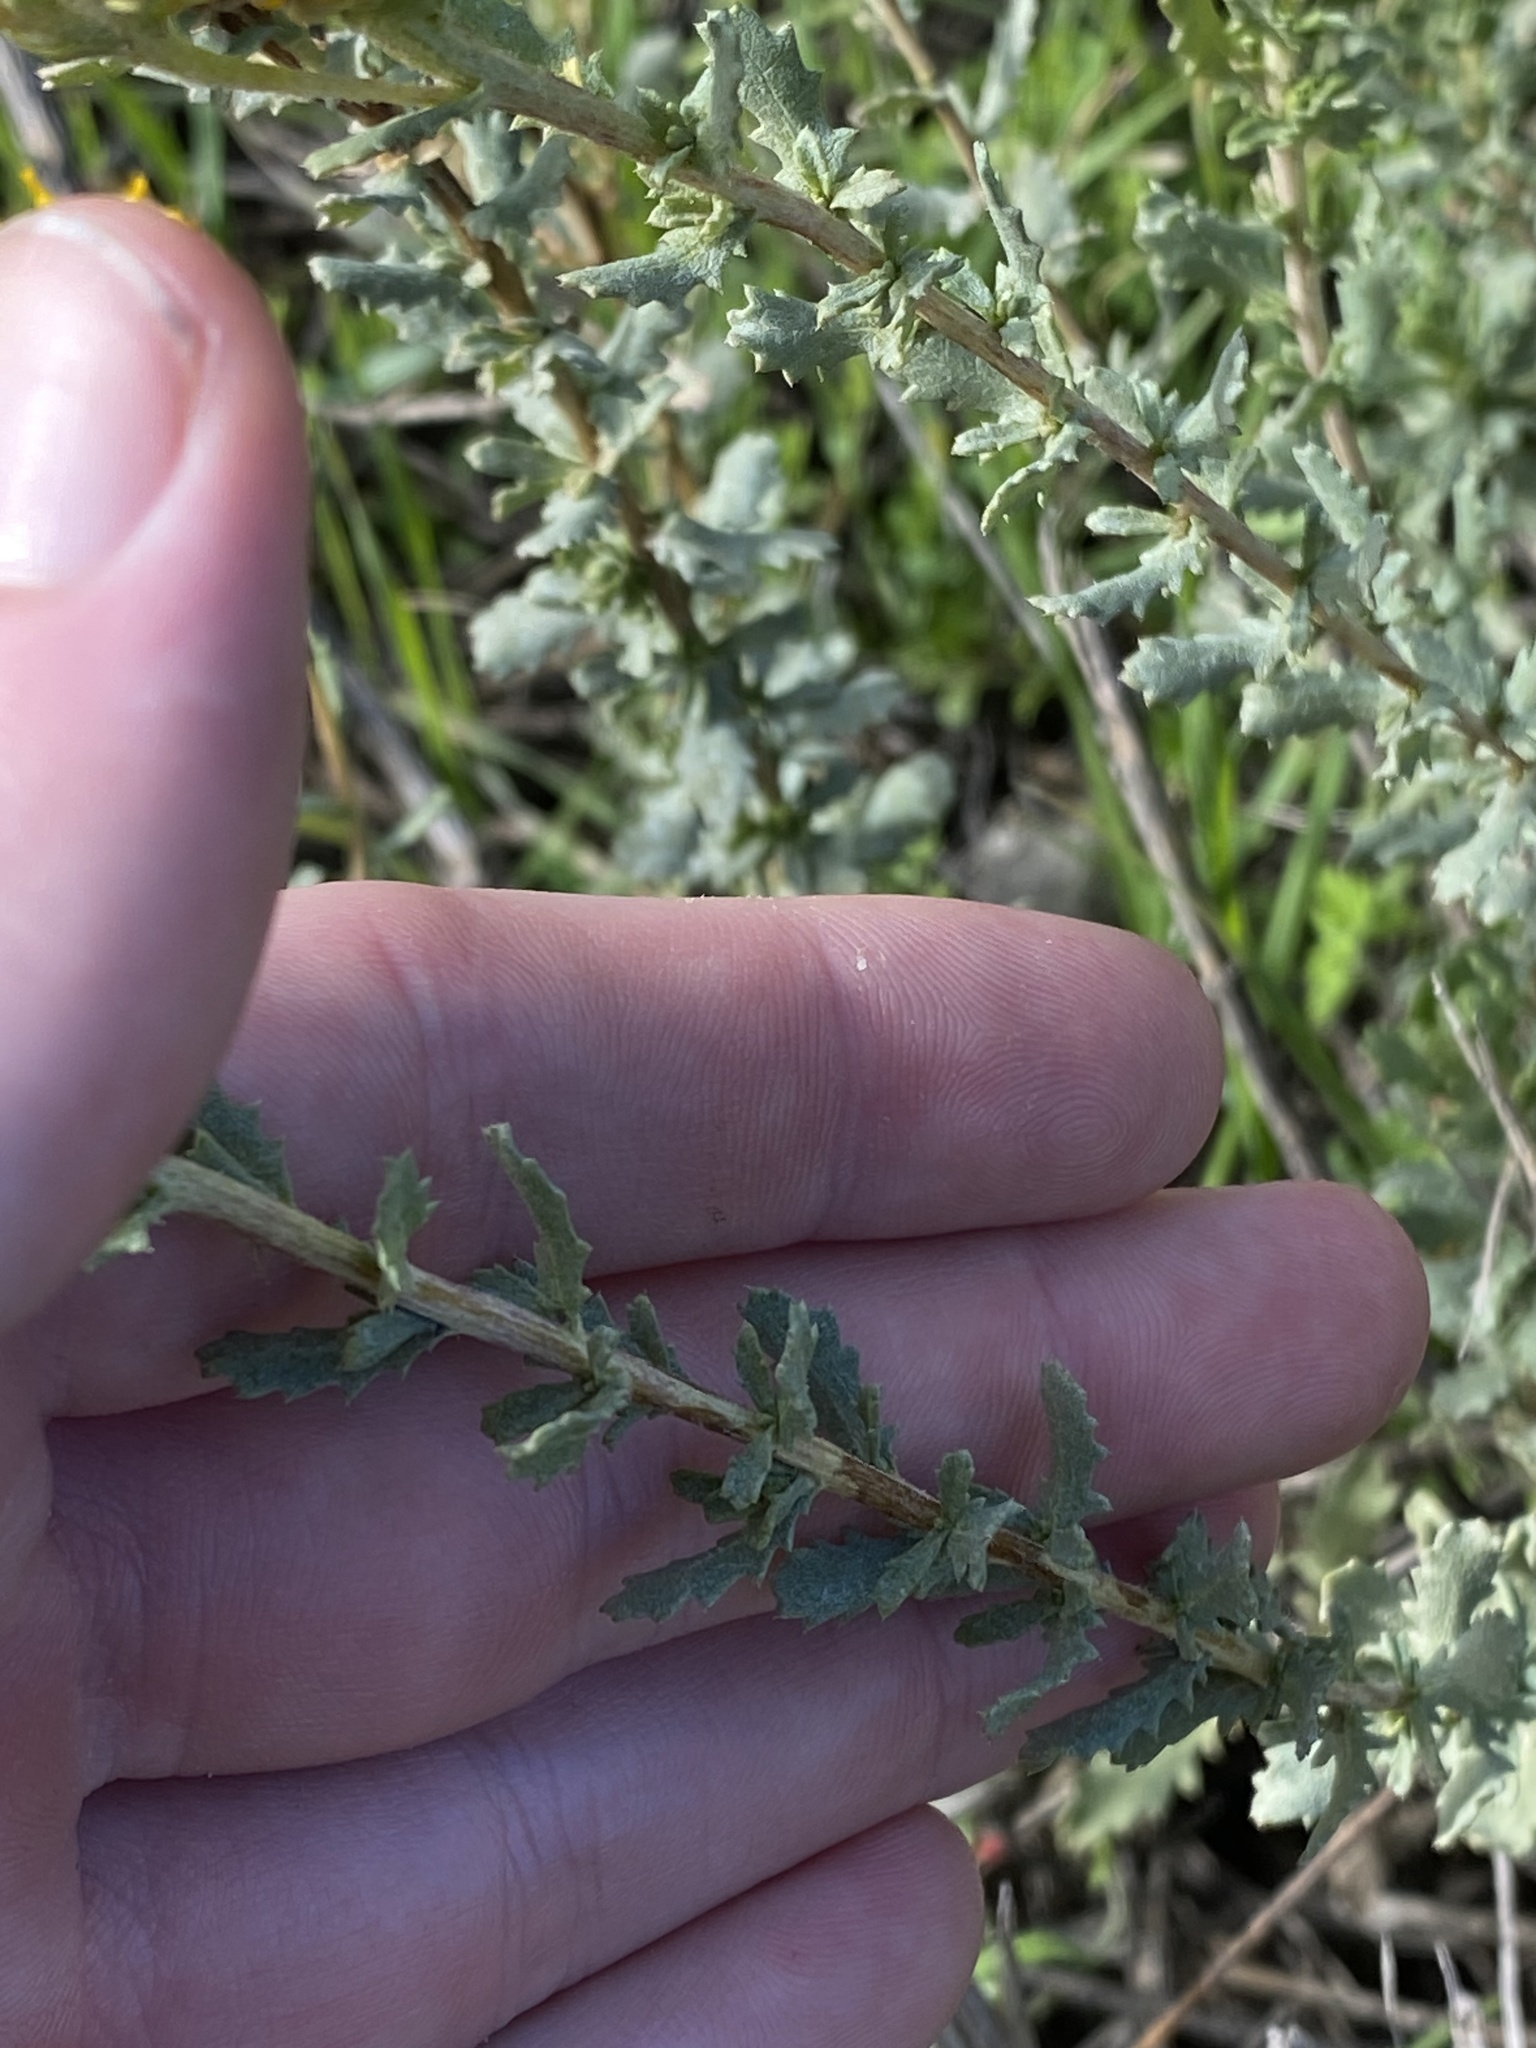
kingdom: Plantae
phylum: Tracheophyta
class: Magnoliopsida
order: Asterales
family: Asteraceae
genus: Isocoma
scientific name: Isocoma menziesii
